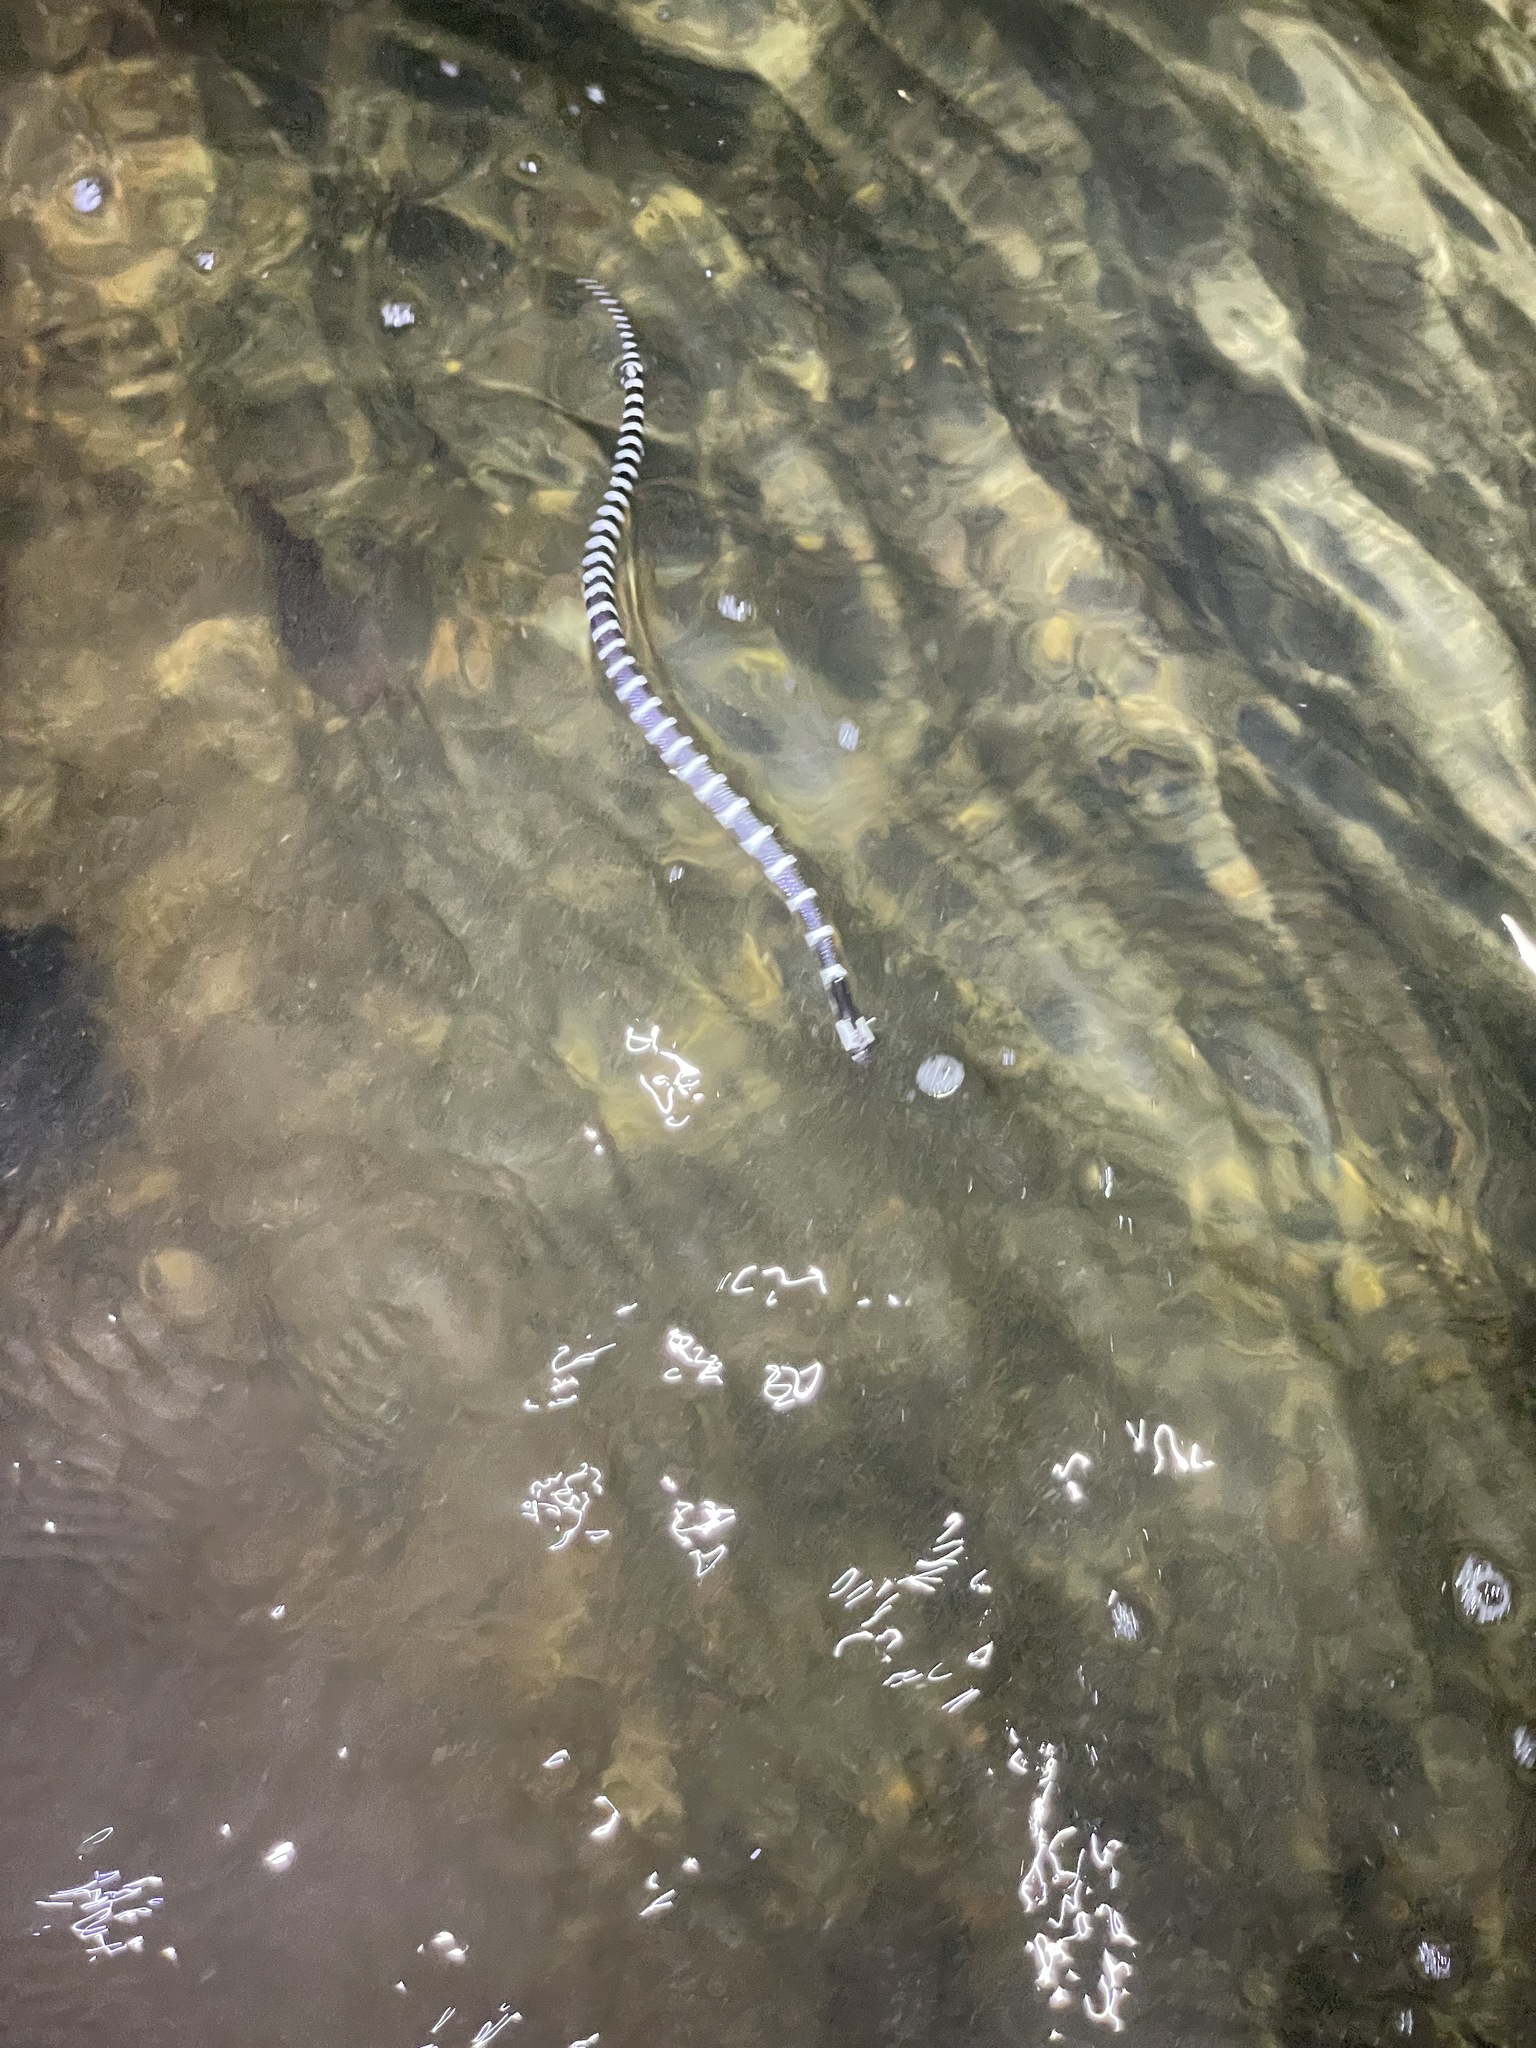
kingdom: Animalia
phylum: Chordata
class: Squamata
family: Elapidae
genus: Bungarus
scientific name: Bungarus multicinctus
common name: Many-banded krait
